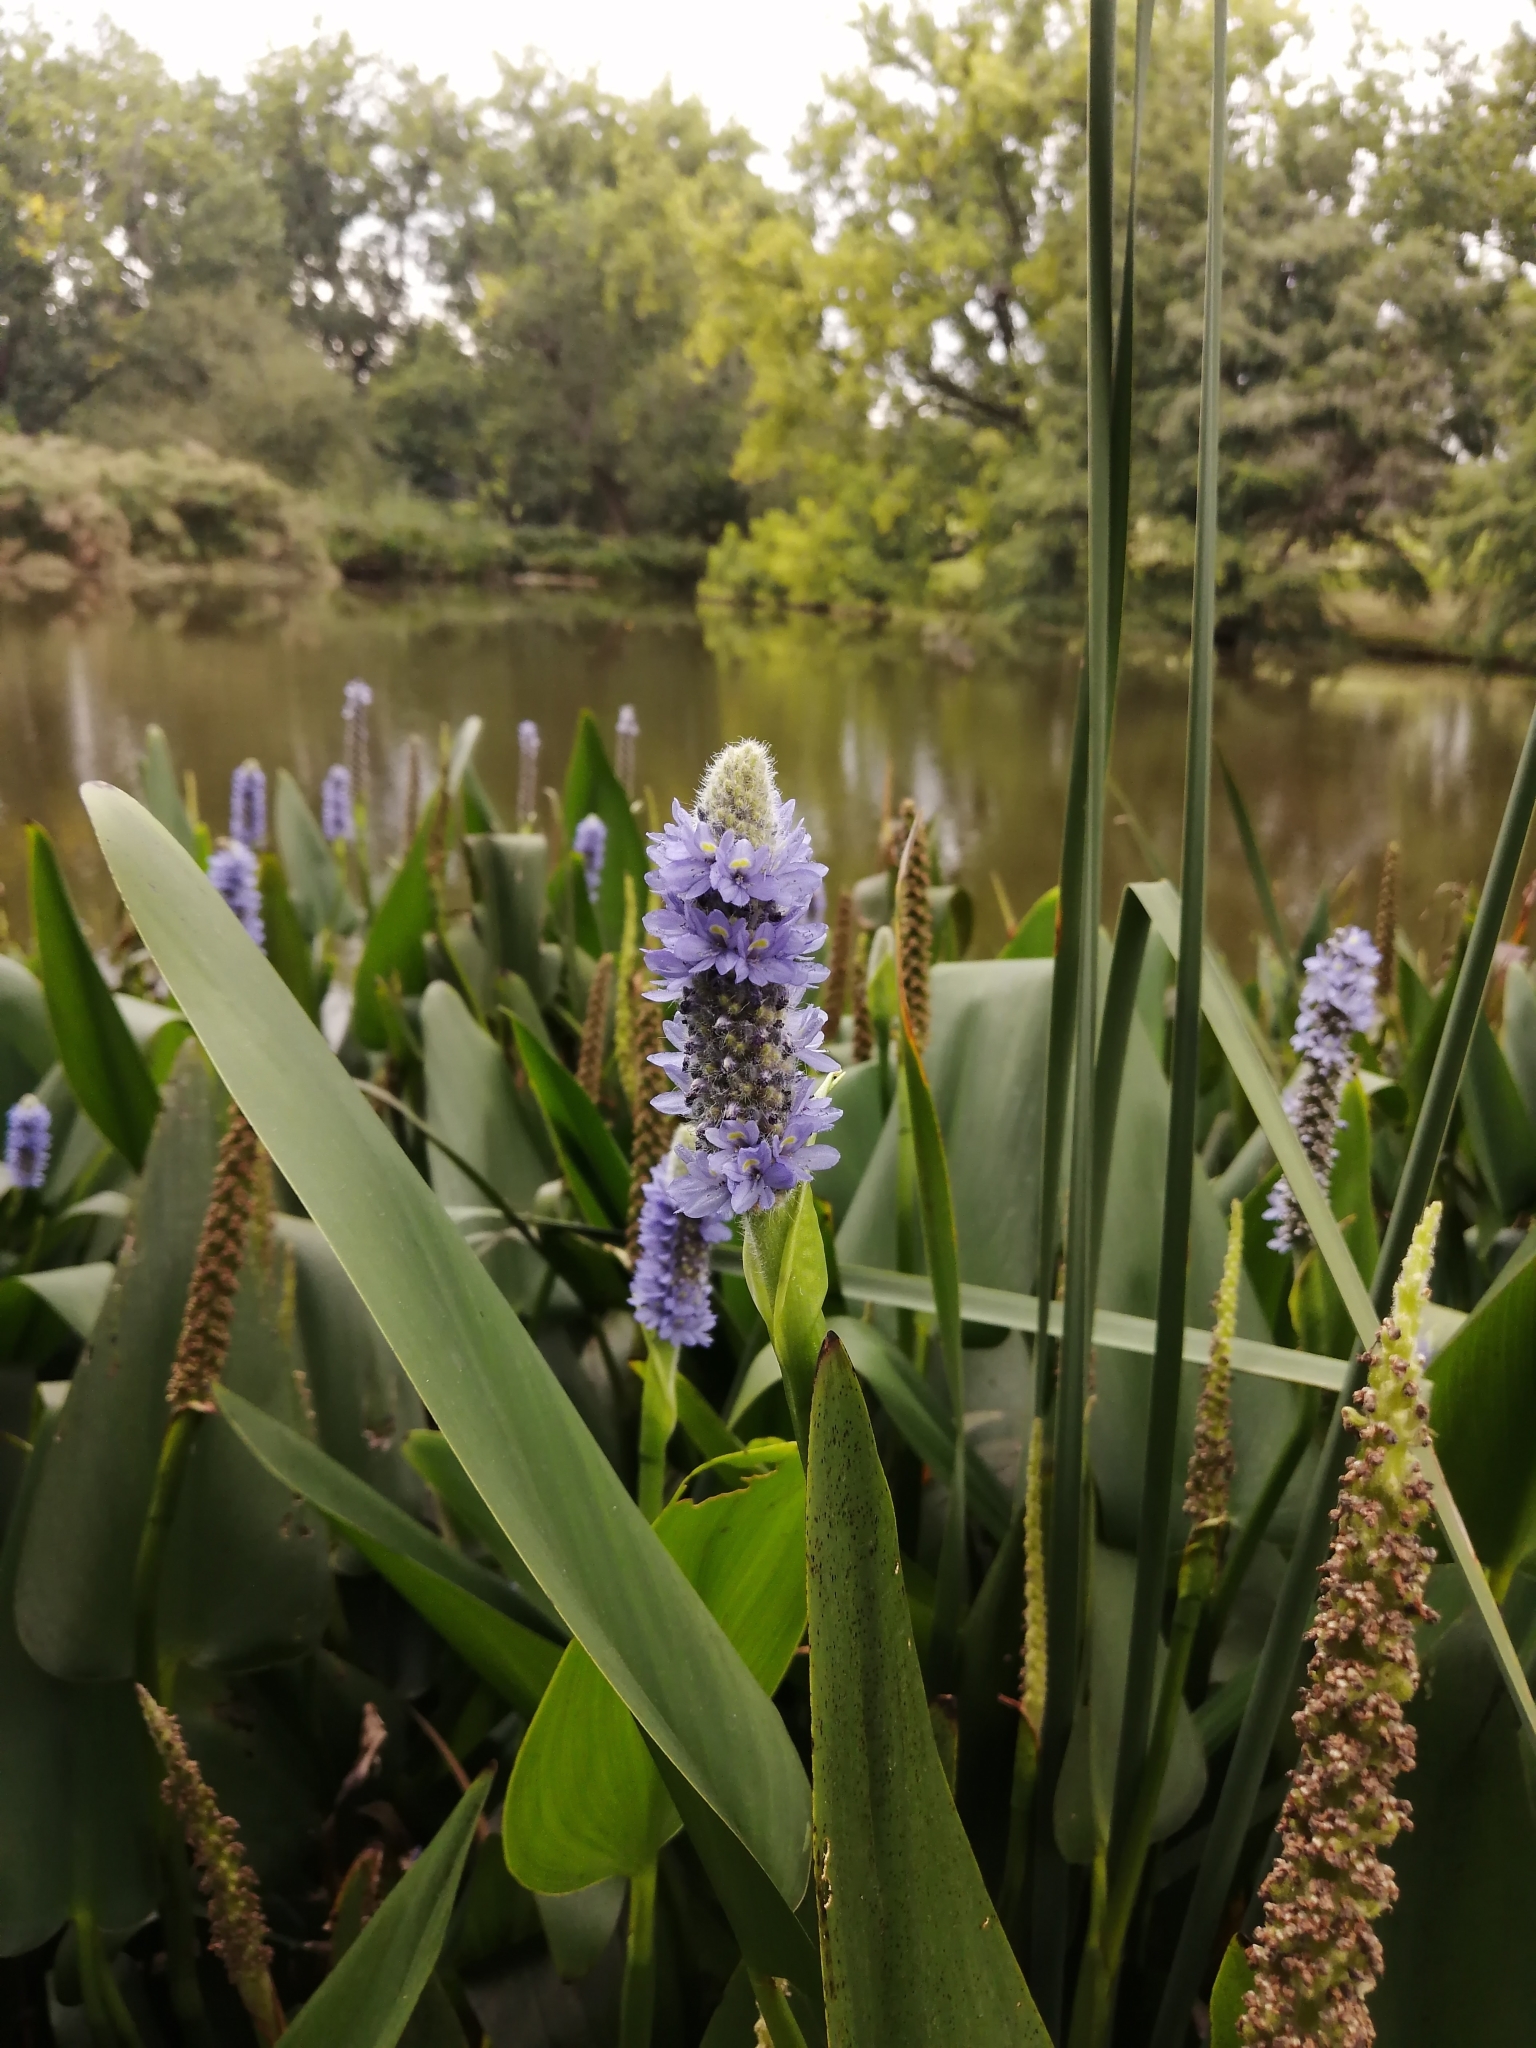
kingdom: Plantae
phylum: Tracheophyta
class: Liliopsida
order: Commelinales
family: Pontederiaceae
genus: Pontederia
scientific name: Pontederia cordata
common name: Pickerelweed
